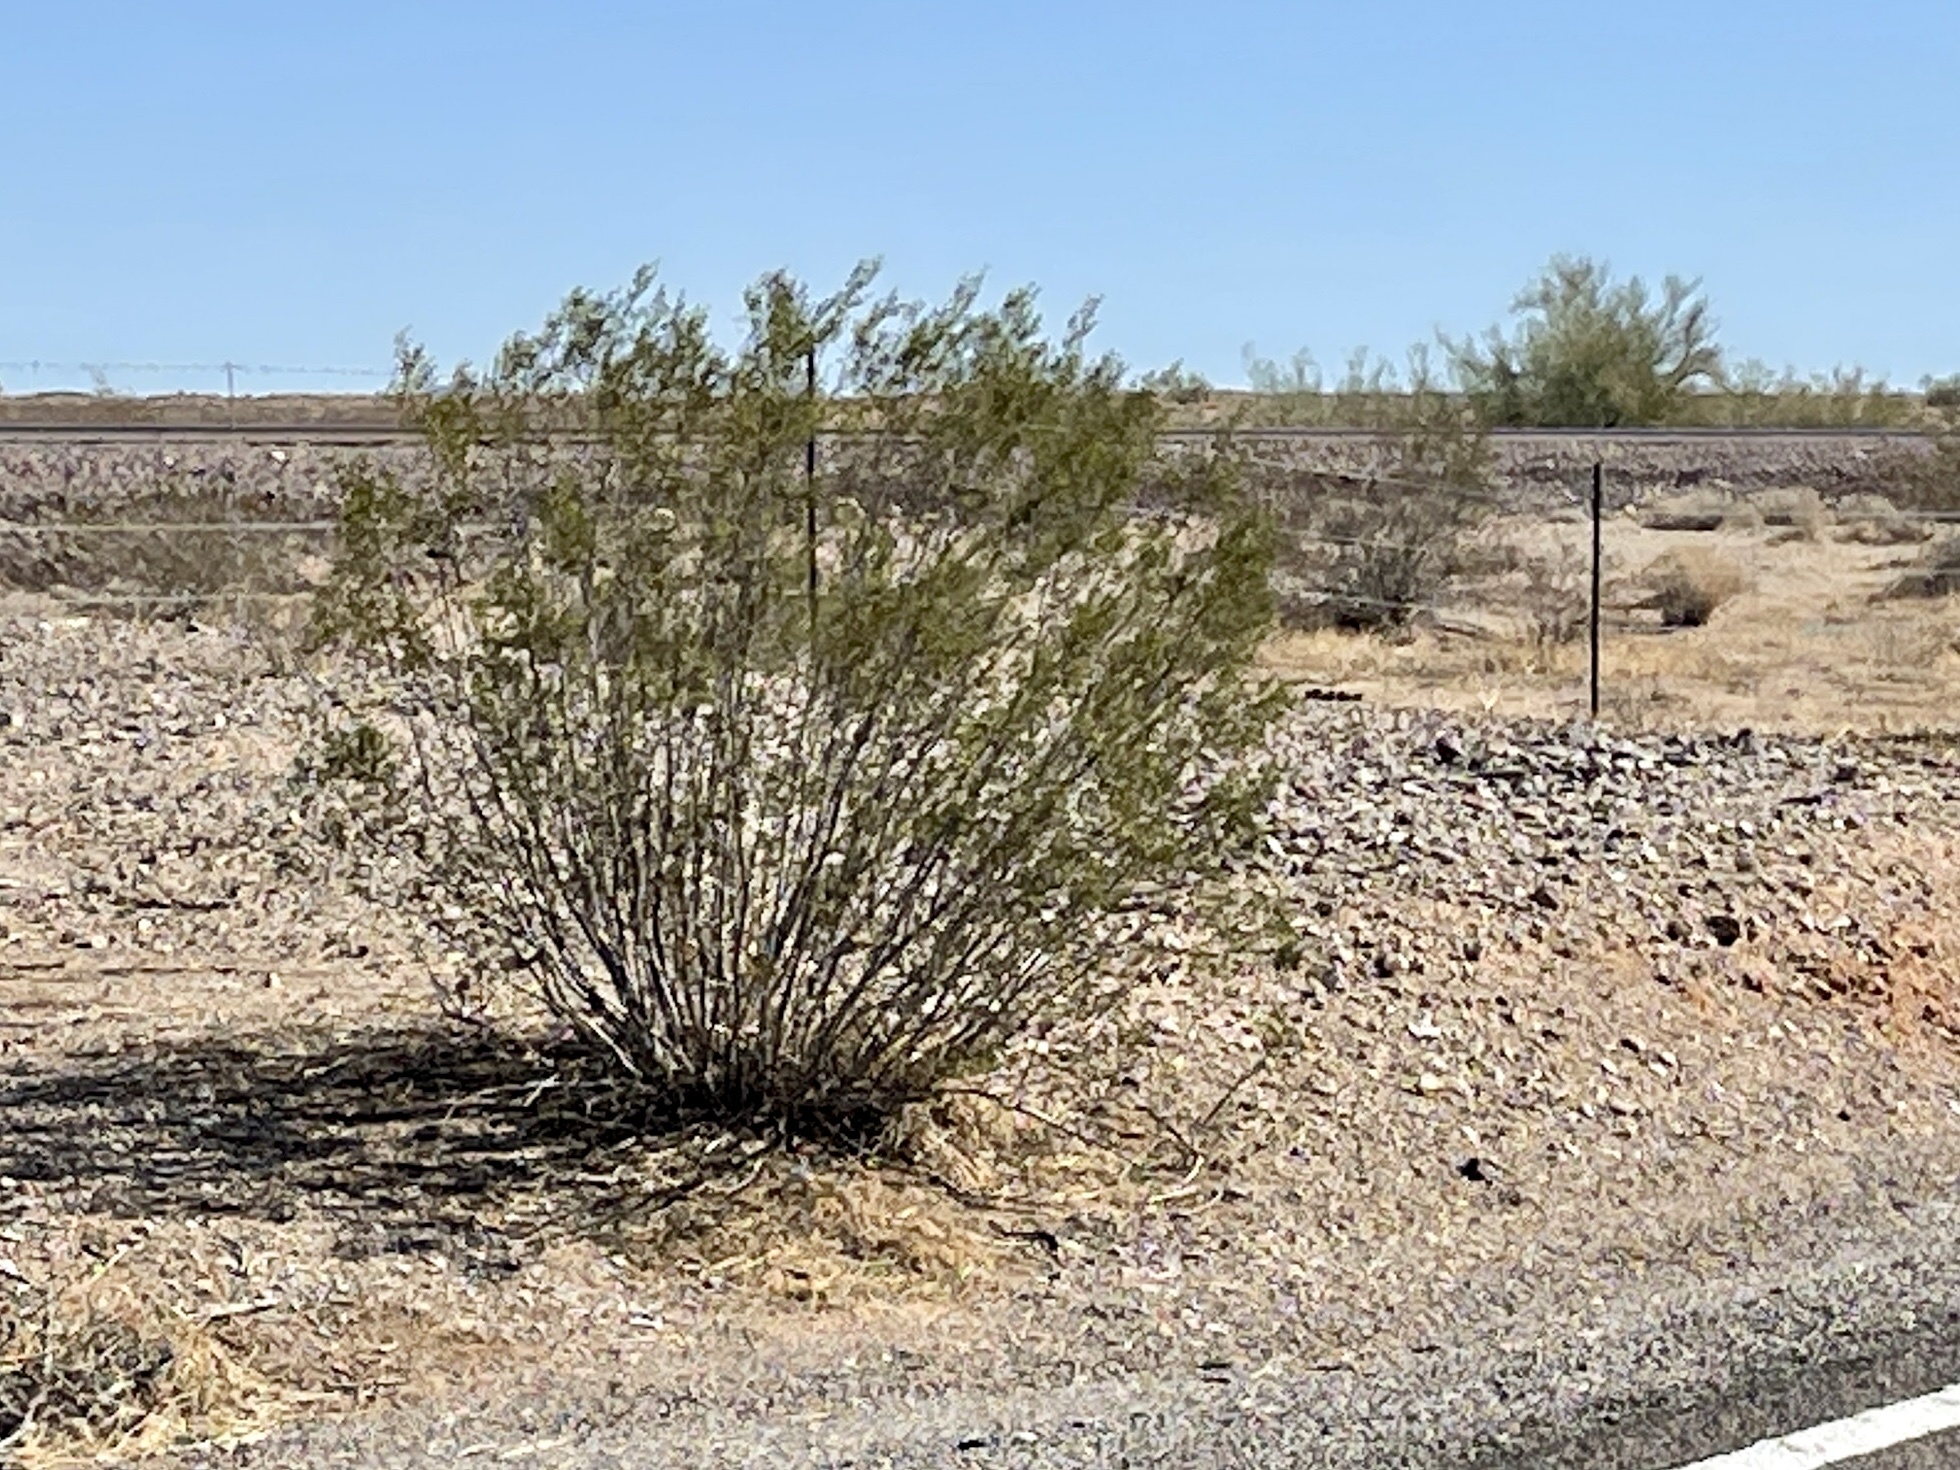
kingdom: Plantae
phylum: Tracheophyta
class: Magnoliopsida
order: Zygophyllales
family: Zygophyllaceae
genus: Larrea
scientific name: Larrea tridentata
